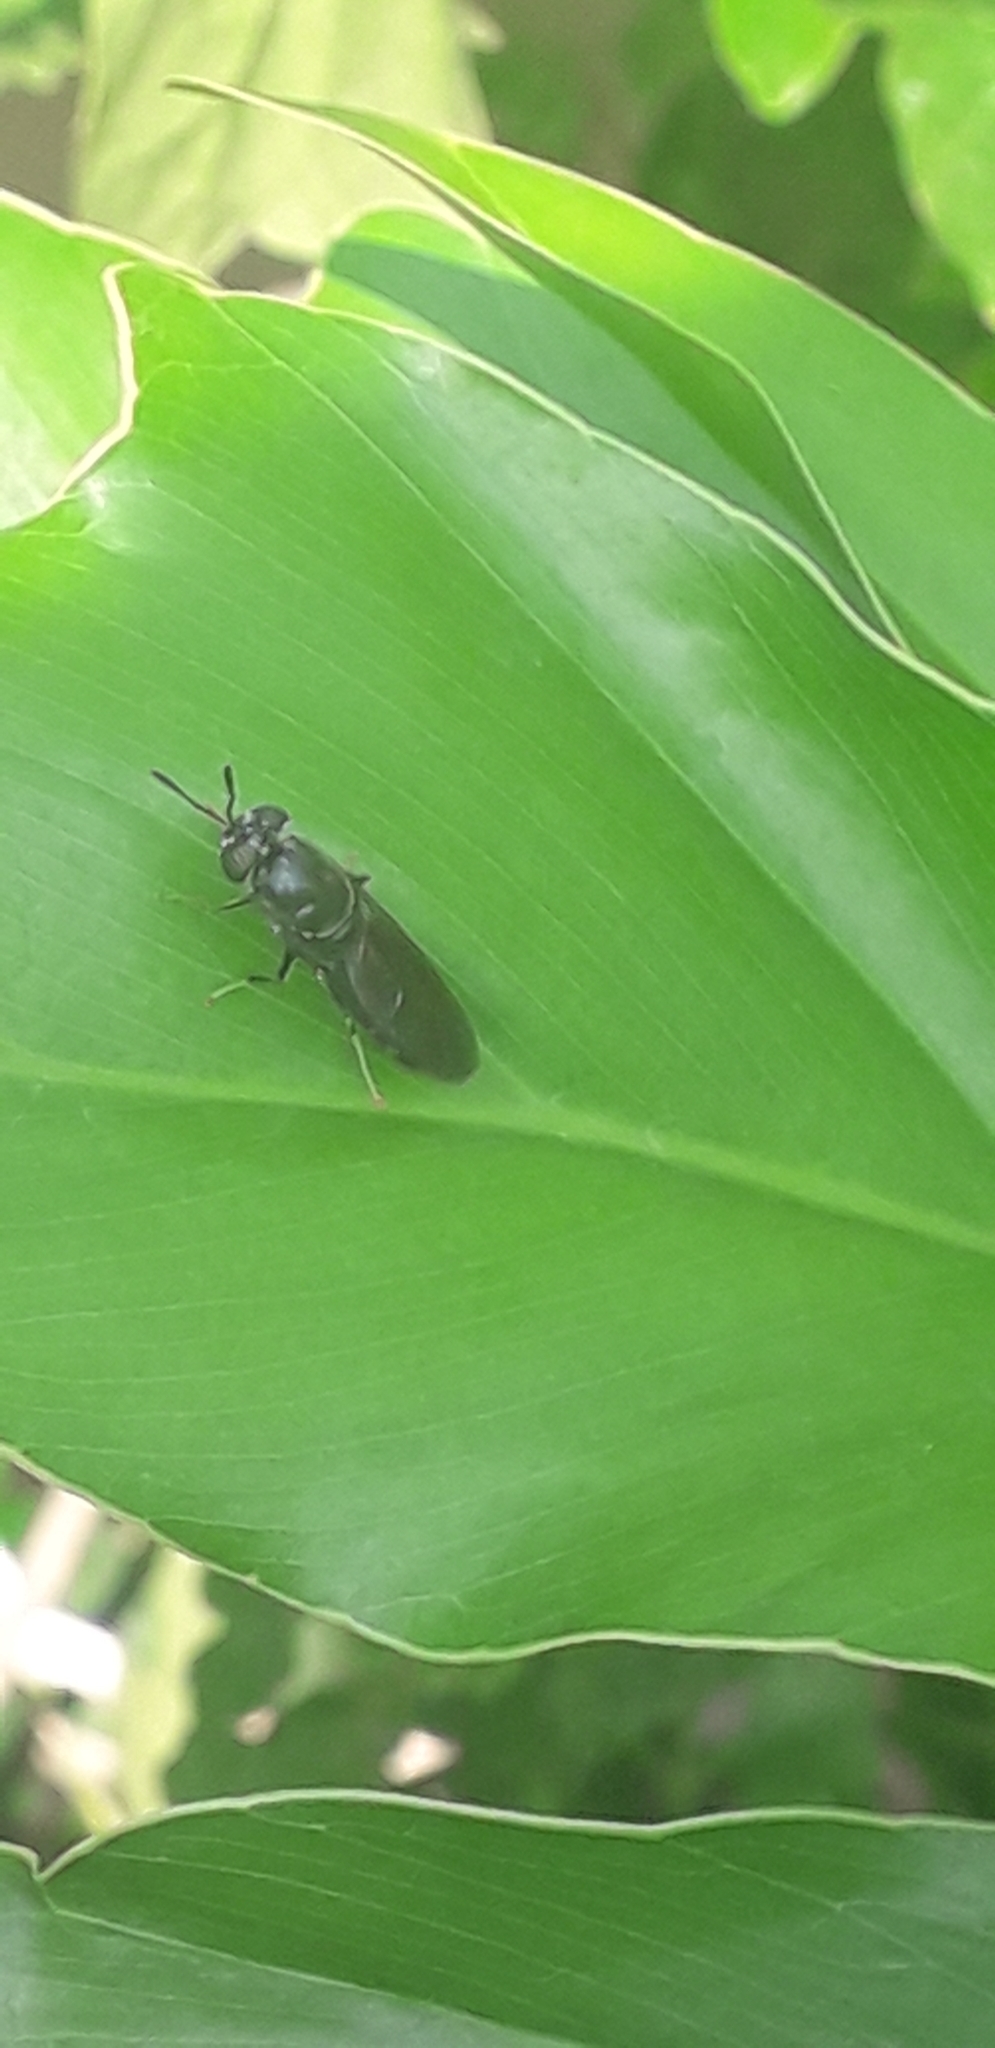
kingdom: Animalia
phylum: Arthropoda
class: Insecta
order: Diptera
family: Stratiomyidae
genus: Hermetia
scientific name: Hermetia illucens
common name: Black soldier fly
